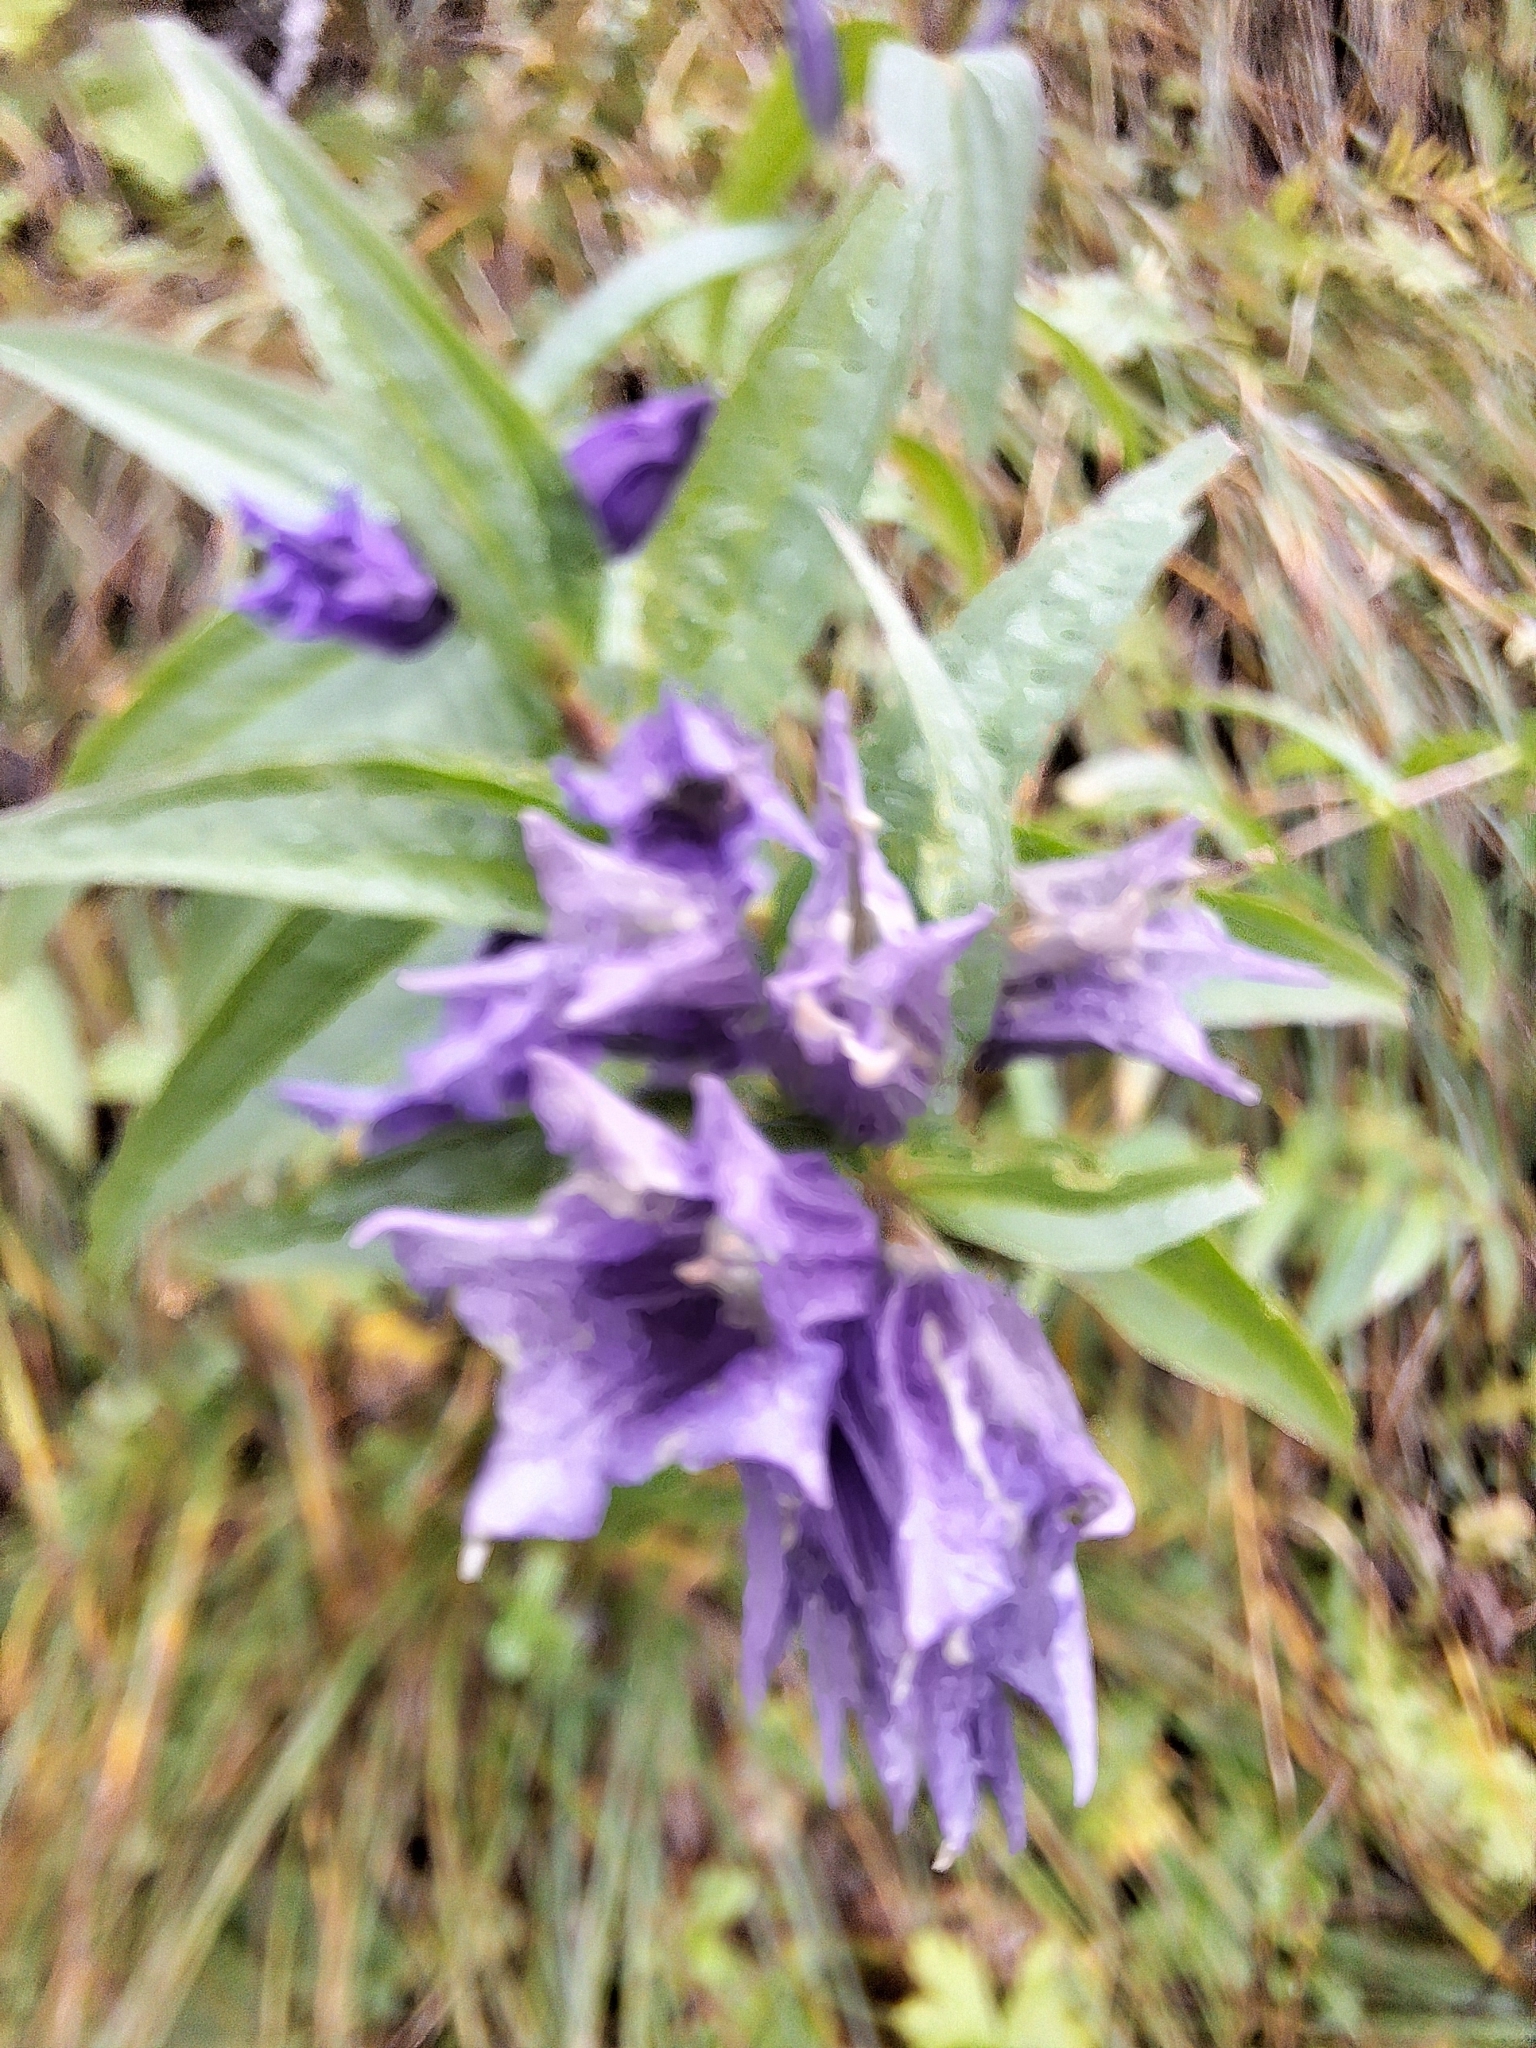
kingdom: Plantae
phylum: Tracheophyta
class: Magnoliopsida
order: Gentianales
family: Gentianaceae
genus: Gentiana
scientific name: Gentiana asclepiadea
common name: Willow gentian
